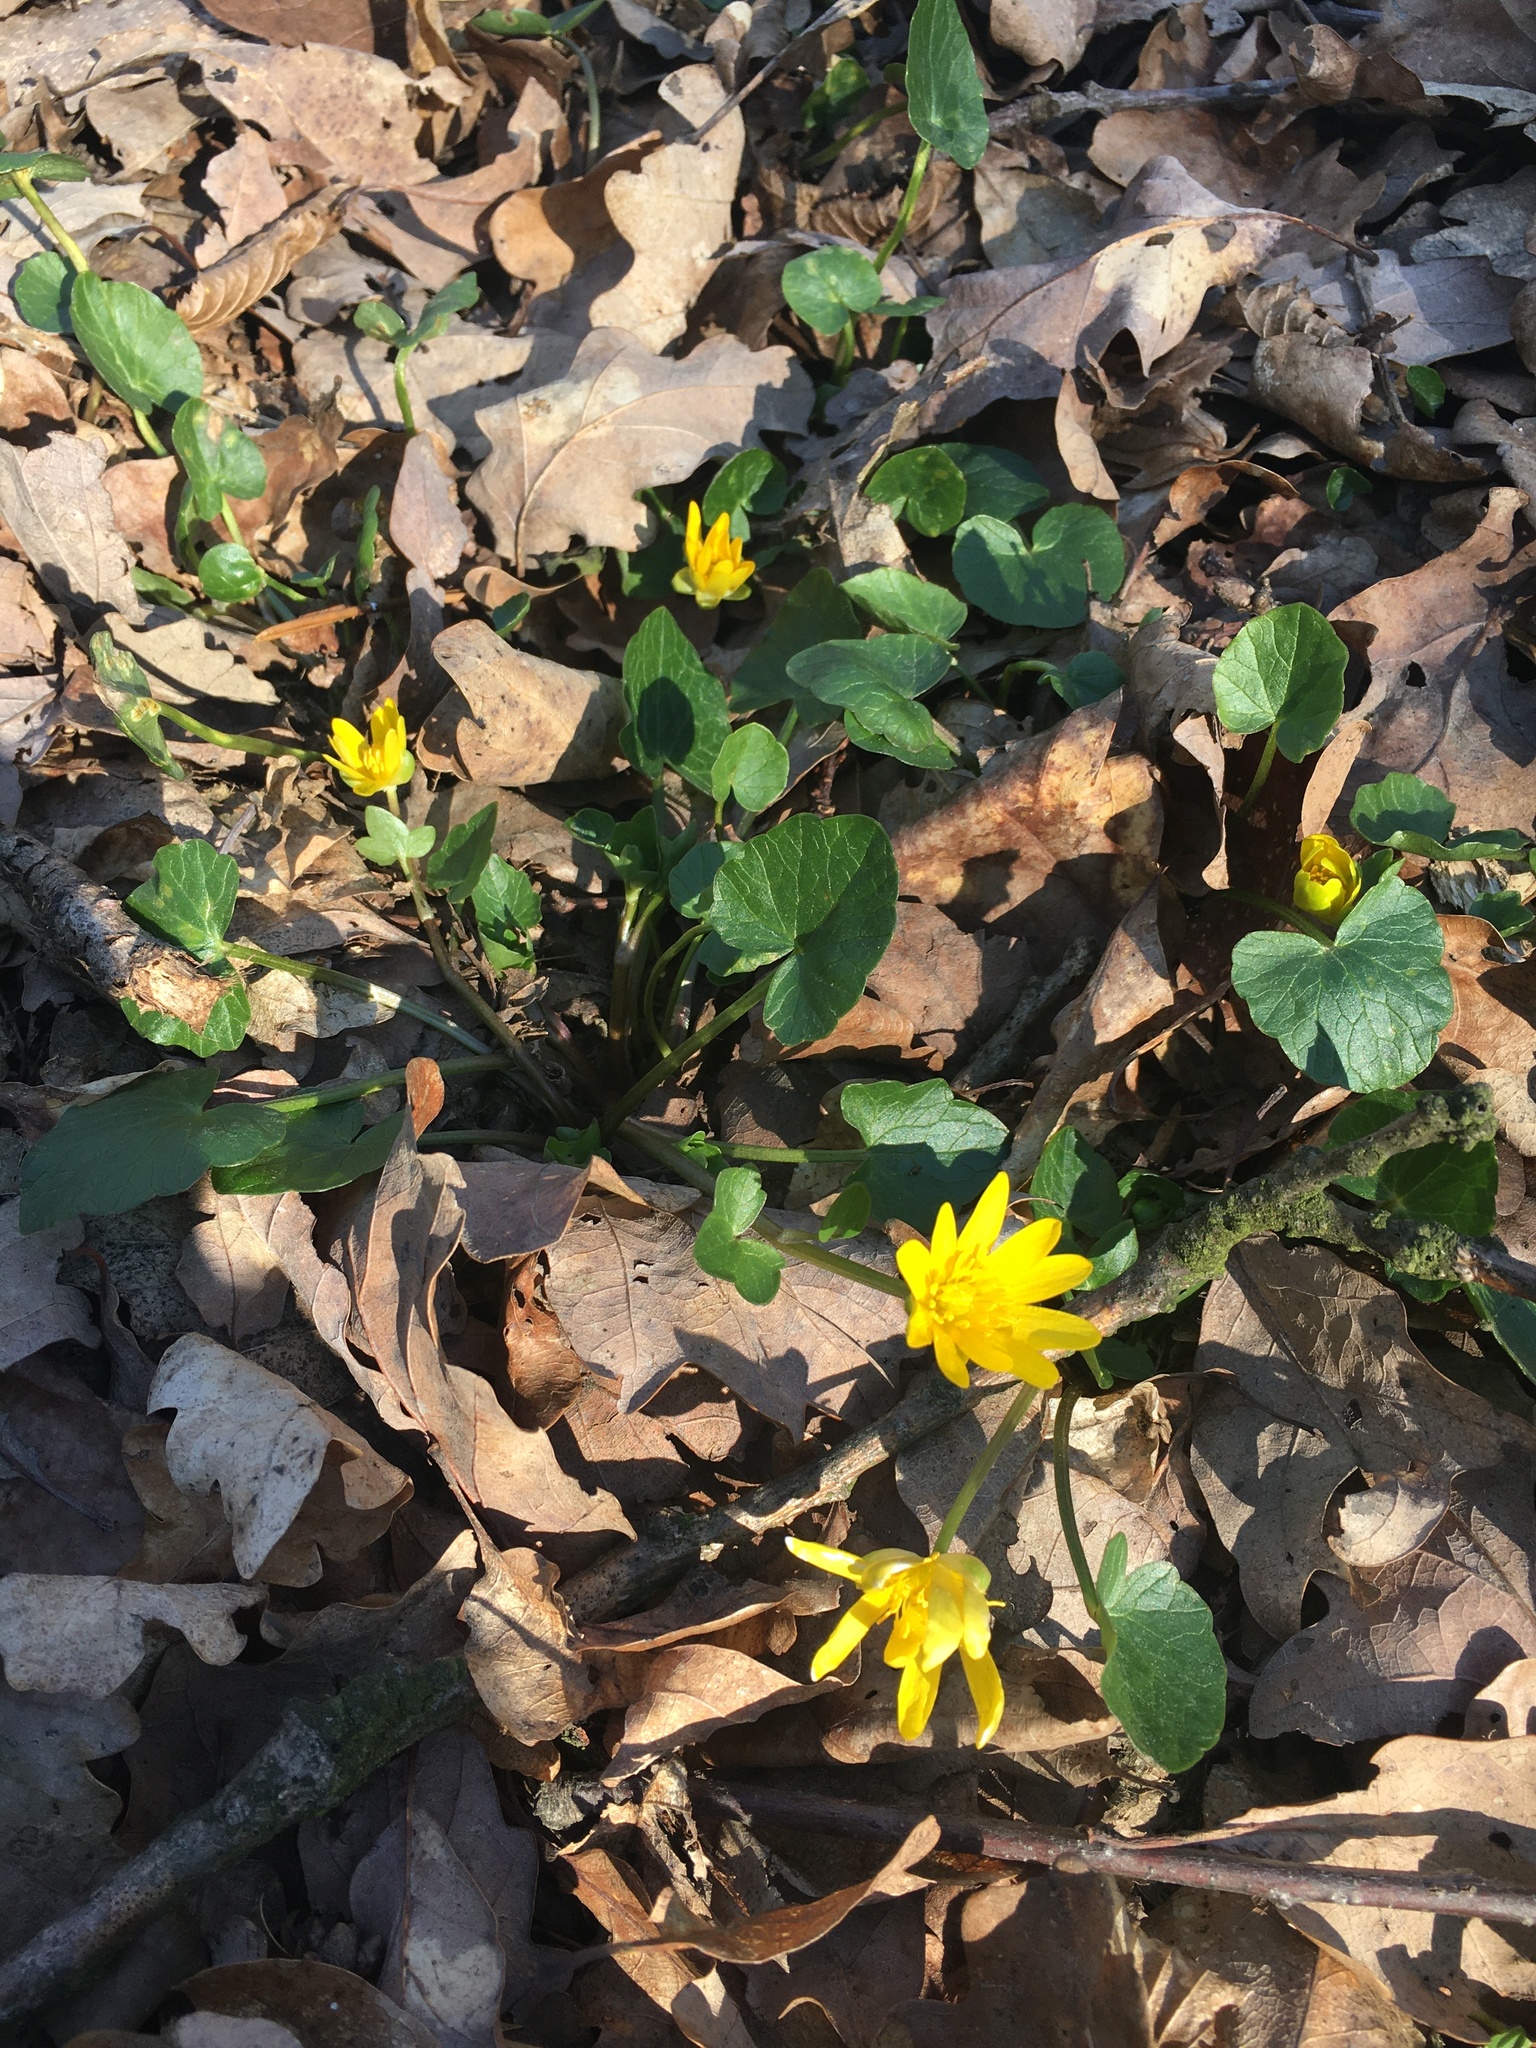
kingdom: Plantae
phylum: Tracheophyta
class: Magnoliopsida
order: Ranunculales
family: Ranunculaceae
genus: Ficaria
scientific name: Ficaria verna
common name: Lesser celandine
